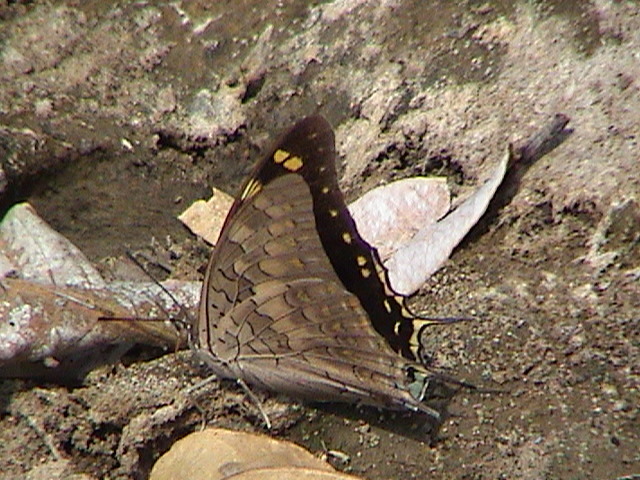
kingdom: Animalia
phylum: Arthropoda
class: Insecta
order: Lepidoptera
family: Nymphalidae
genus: Charaxes
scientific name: Charaxes solon
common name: Black rajah
